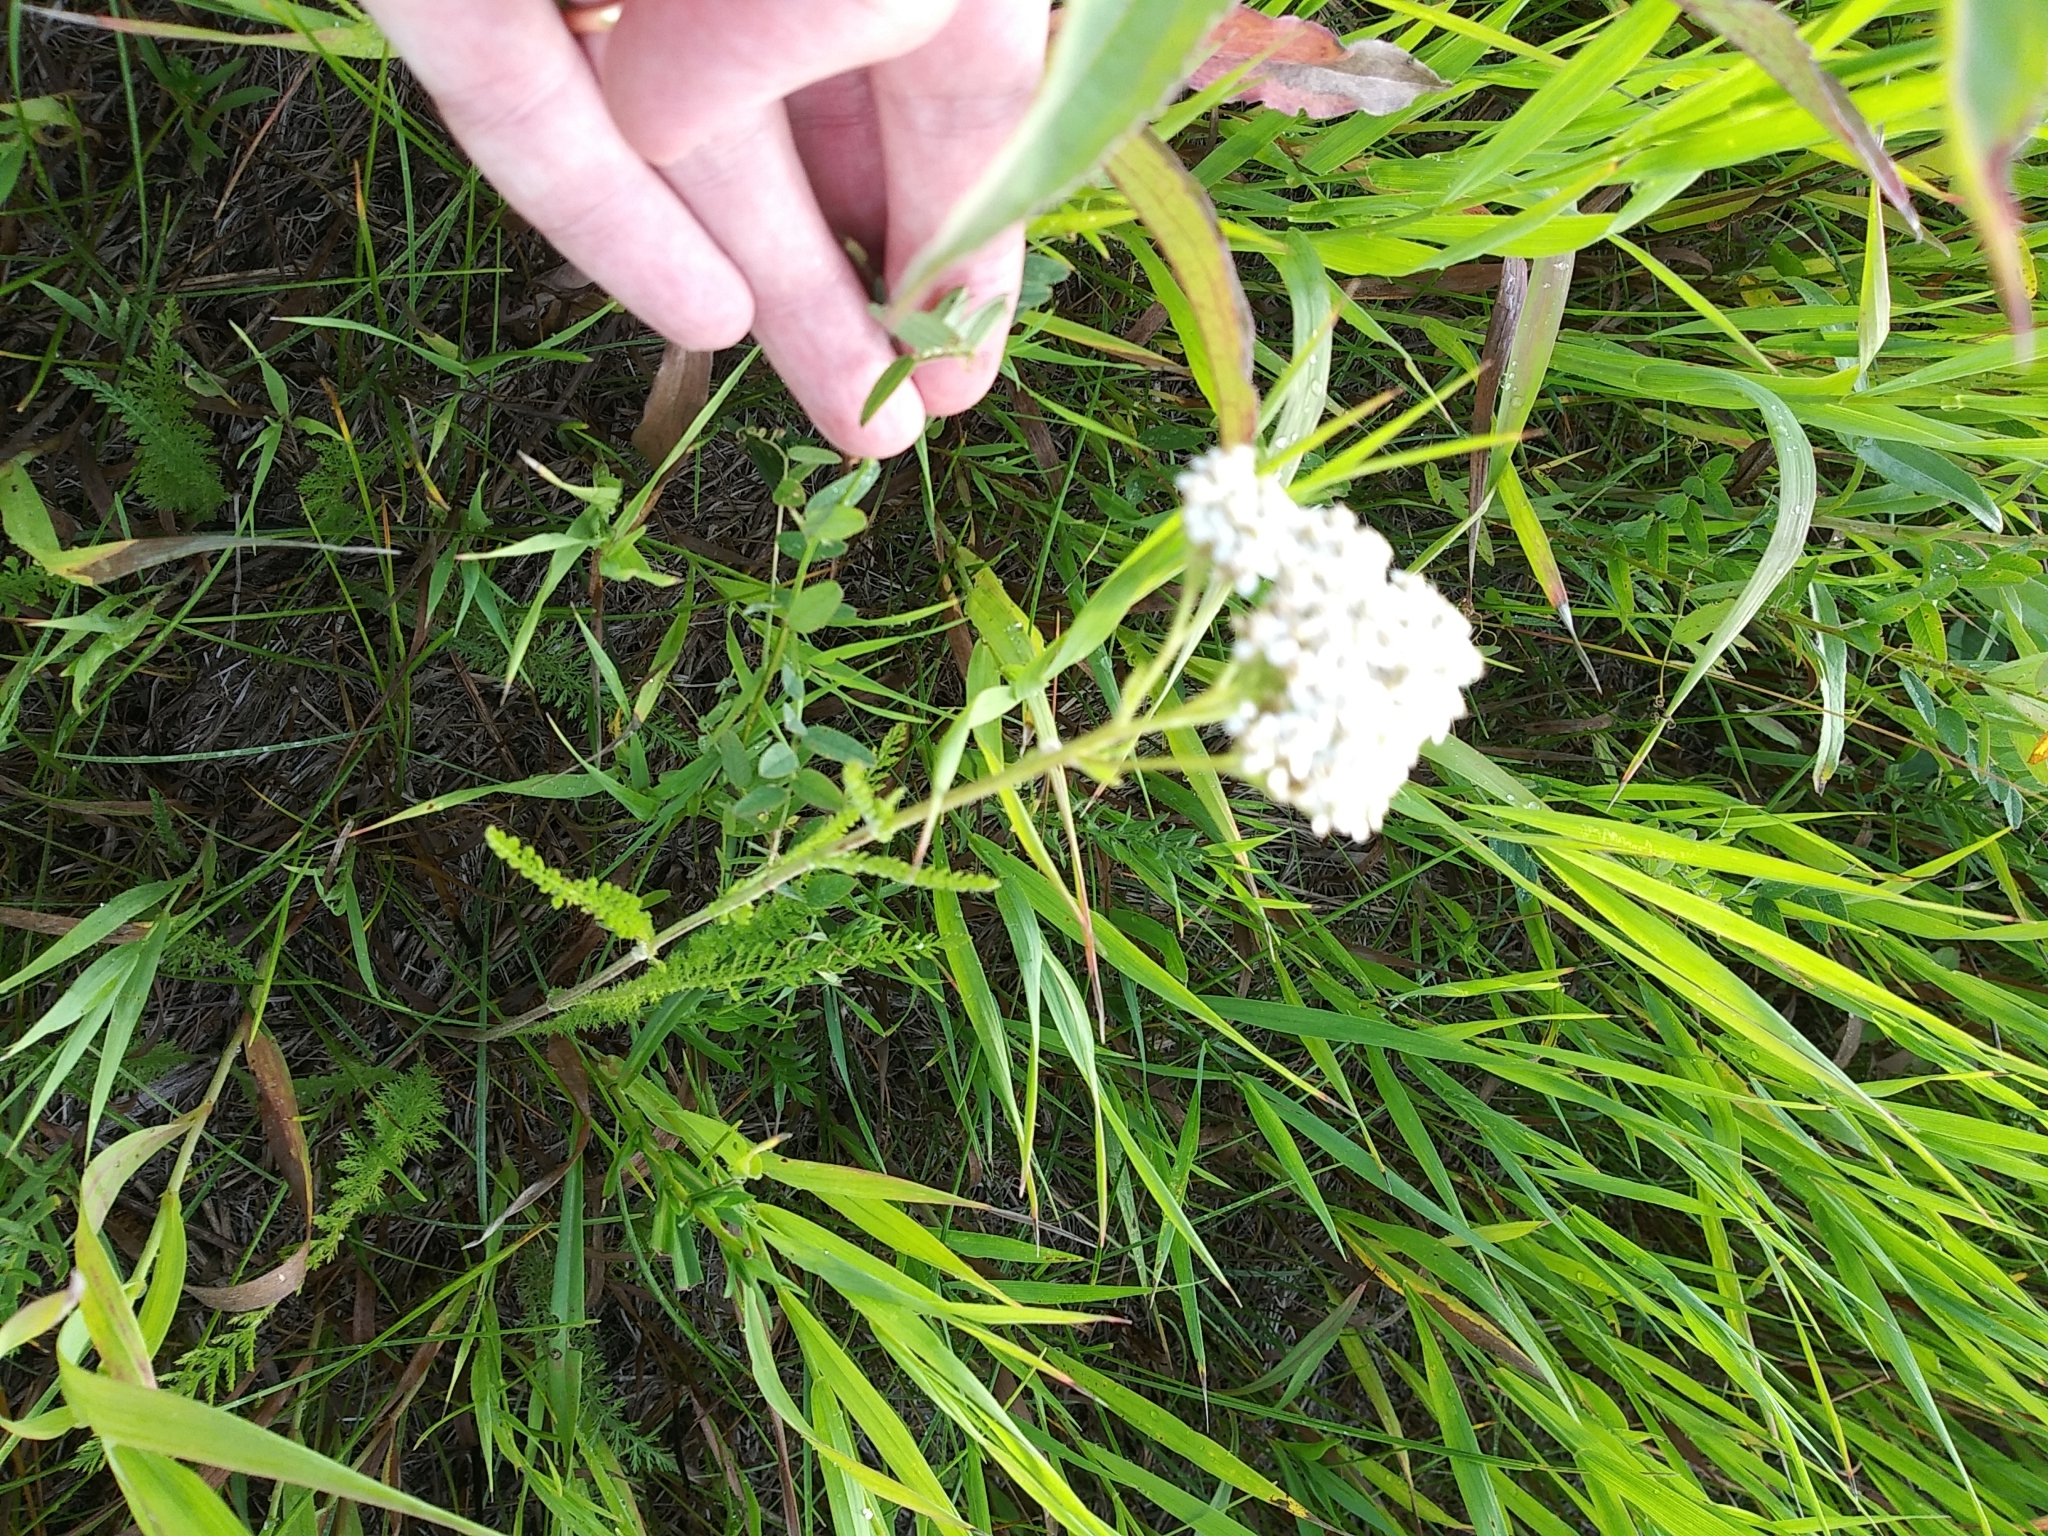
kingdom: Plantae
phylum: Tracheophyta
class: Magnoliopsida
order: Asterales
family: Asteraceae
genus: Achillea
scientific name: Achillea millefolium
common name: Yarrow
